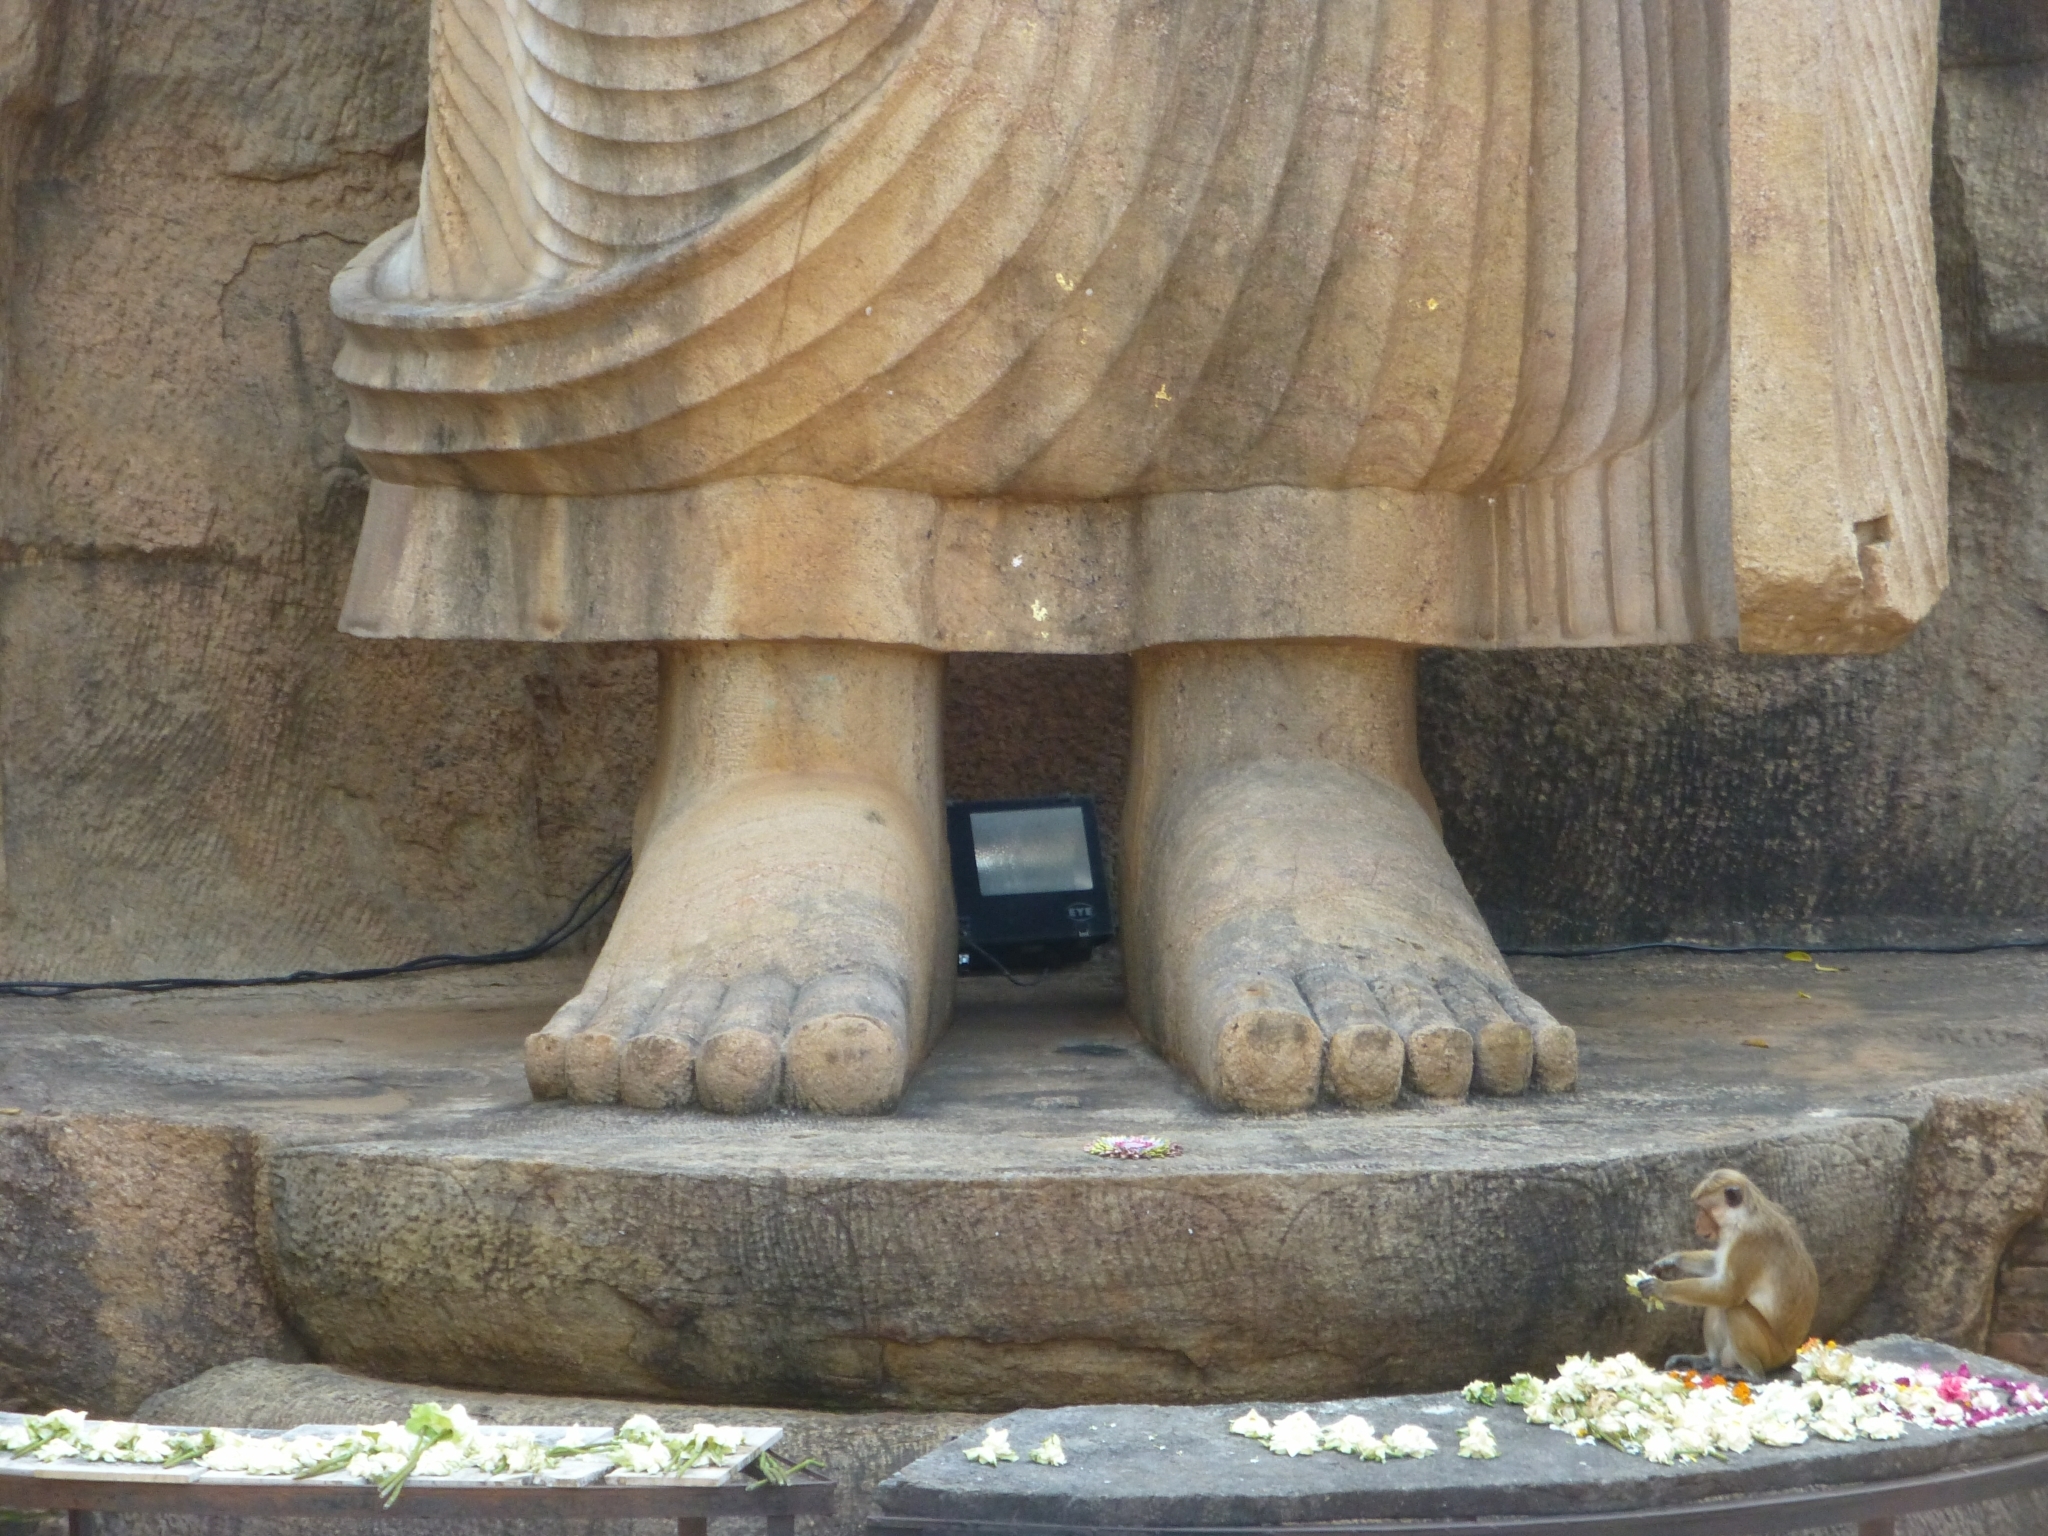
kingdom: Animalia
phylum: Chordata
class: Mammalia
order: Primates
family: Cercopithecidae
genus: Macaca
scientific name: Macaca sinica
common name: Toque macaque
